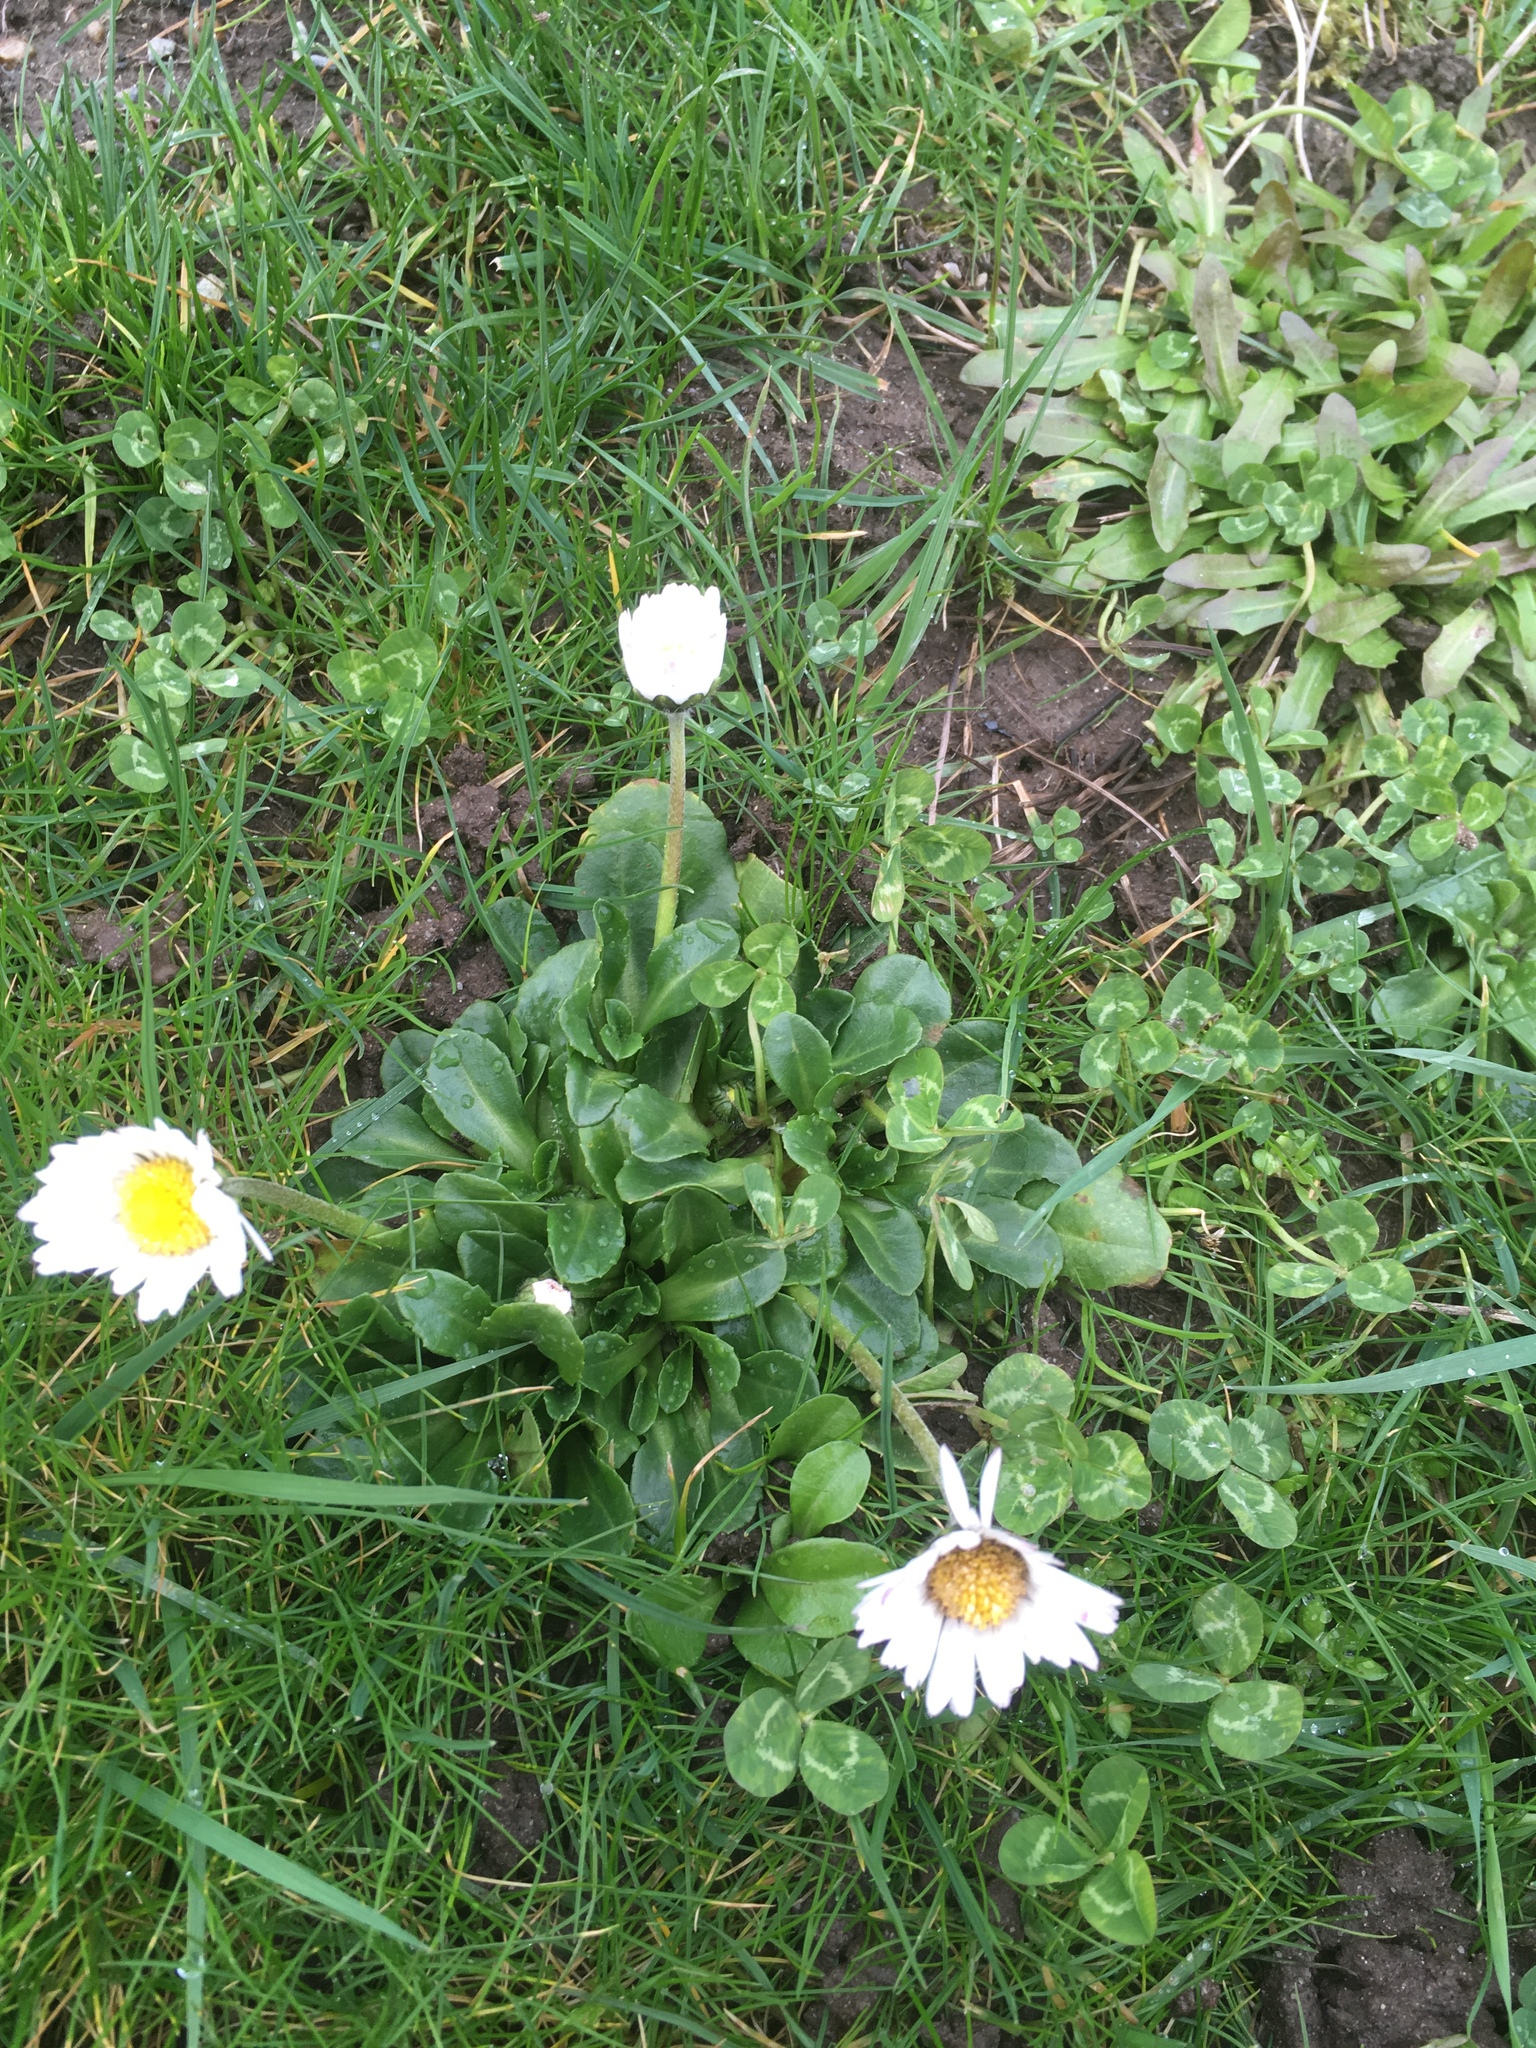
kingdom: Plantae
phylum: Tracheophyta
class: Magnoliopsida
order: Asterales
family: Asteraceae
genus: Bellis
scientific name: Bellis perennis
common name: Lawndaisy
